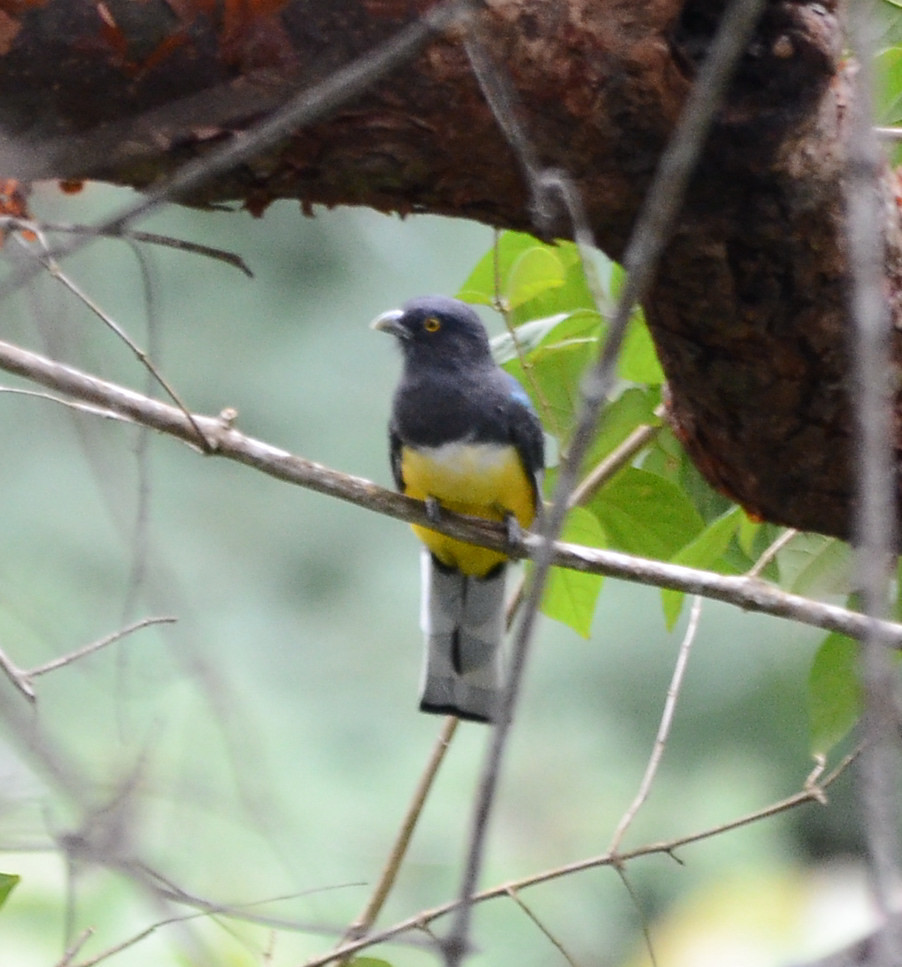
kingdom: Animalia
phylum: Chordata
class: Aves
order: Trogoniformes
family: Trogonidae
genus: Trogon
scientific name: Trogon citreolus
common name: Citreoline trogon
